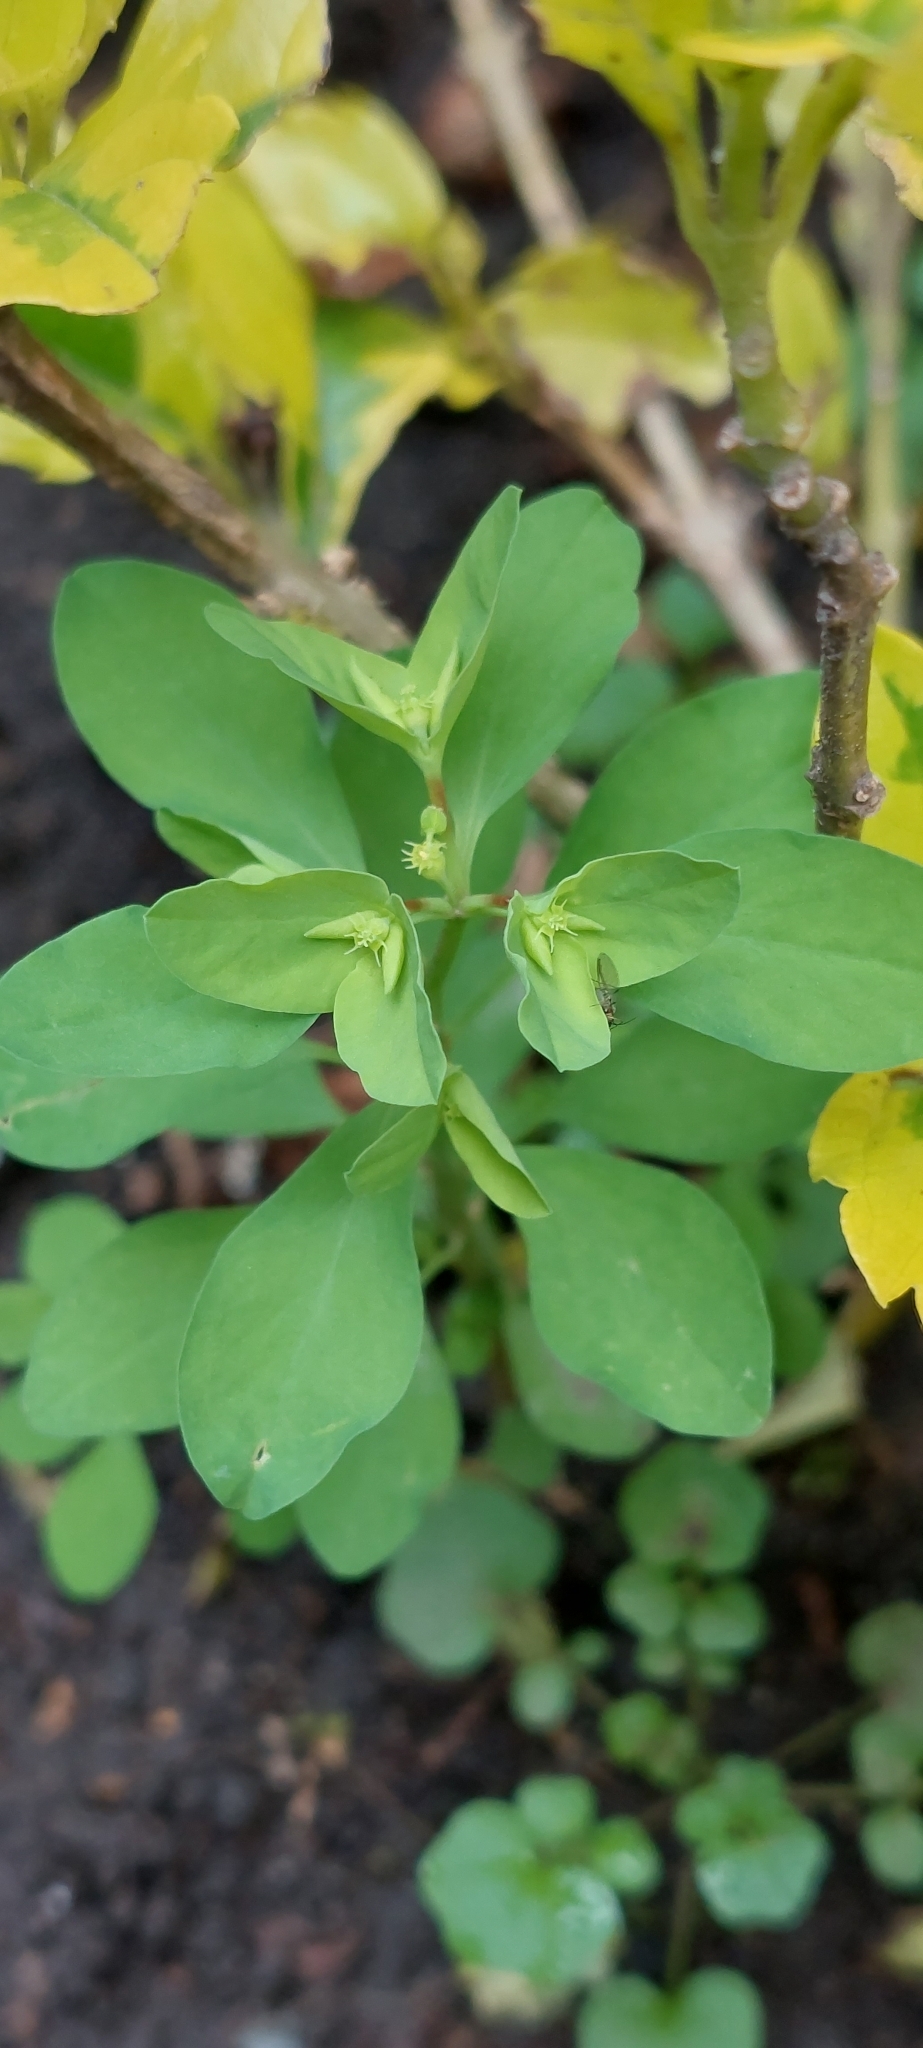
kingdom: Plantae
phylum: Tracheophyta
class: Magnoliopsida
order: Malpighiales
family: Euphorbiaceae
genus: Euphorbia
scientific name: Euphorbia peplus
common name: Petty spurge
